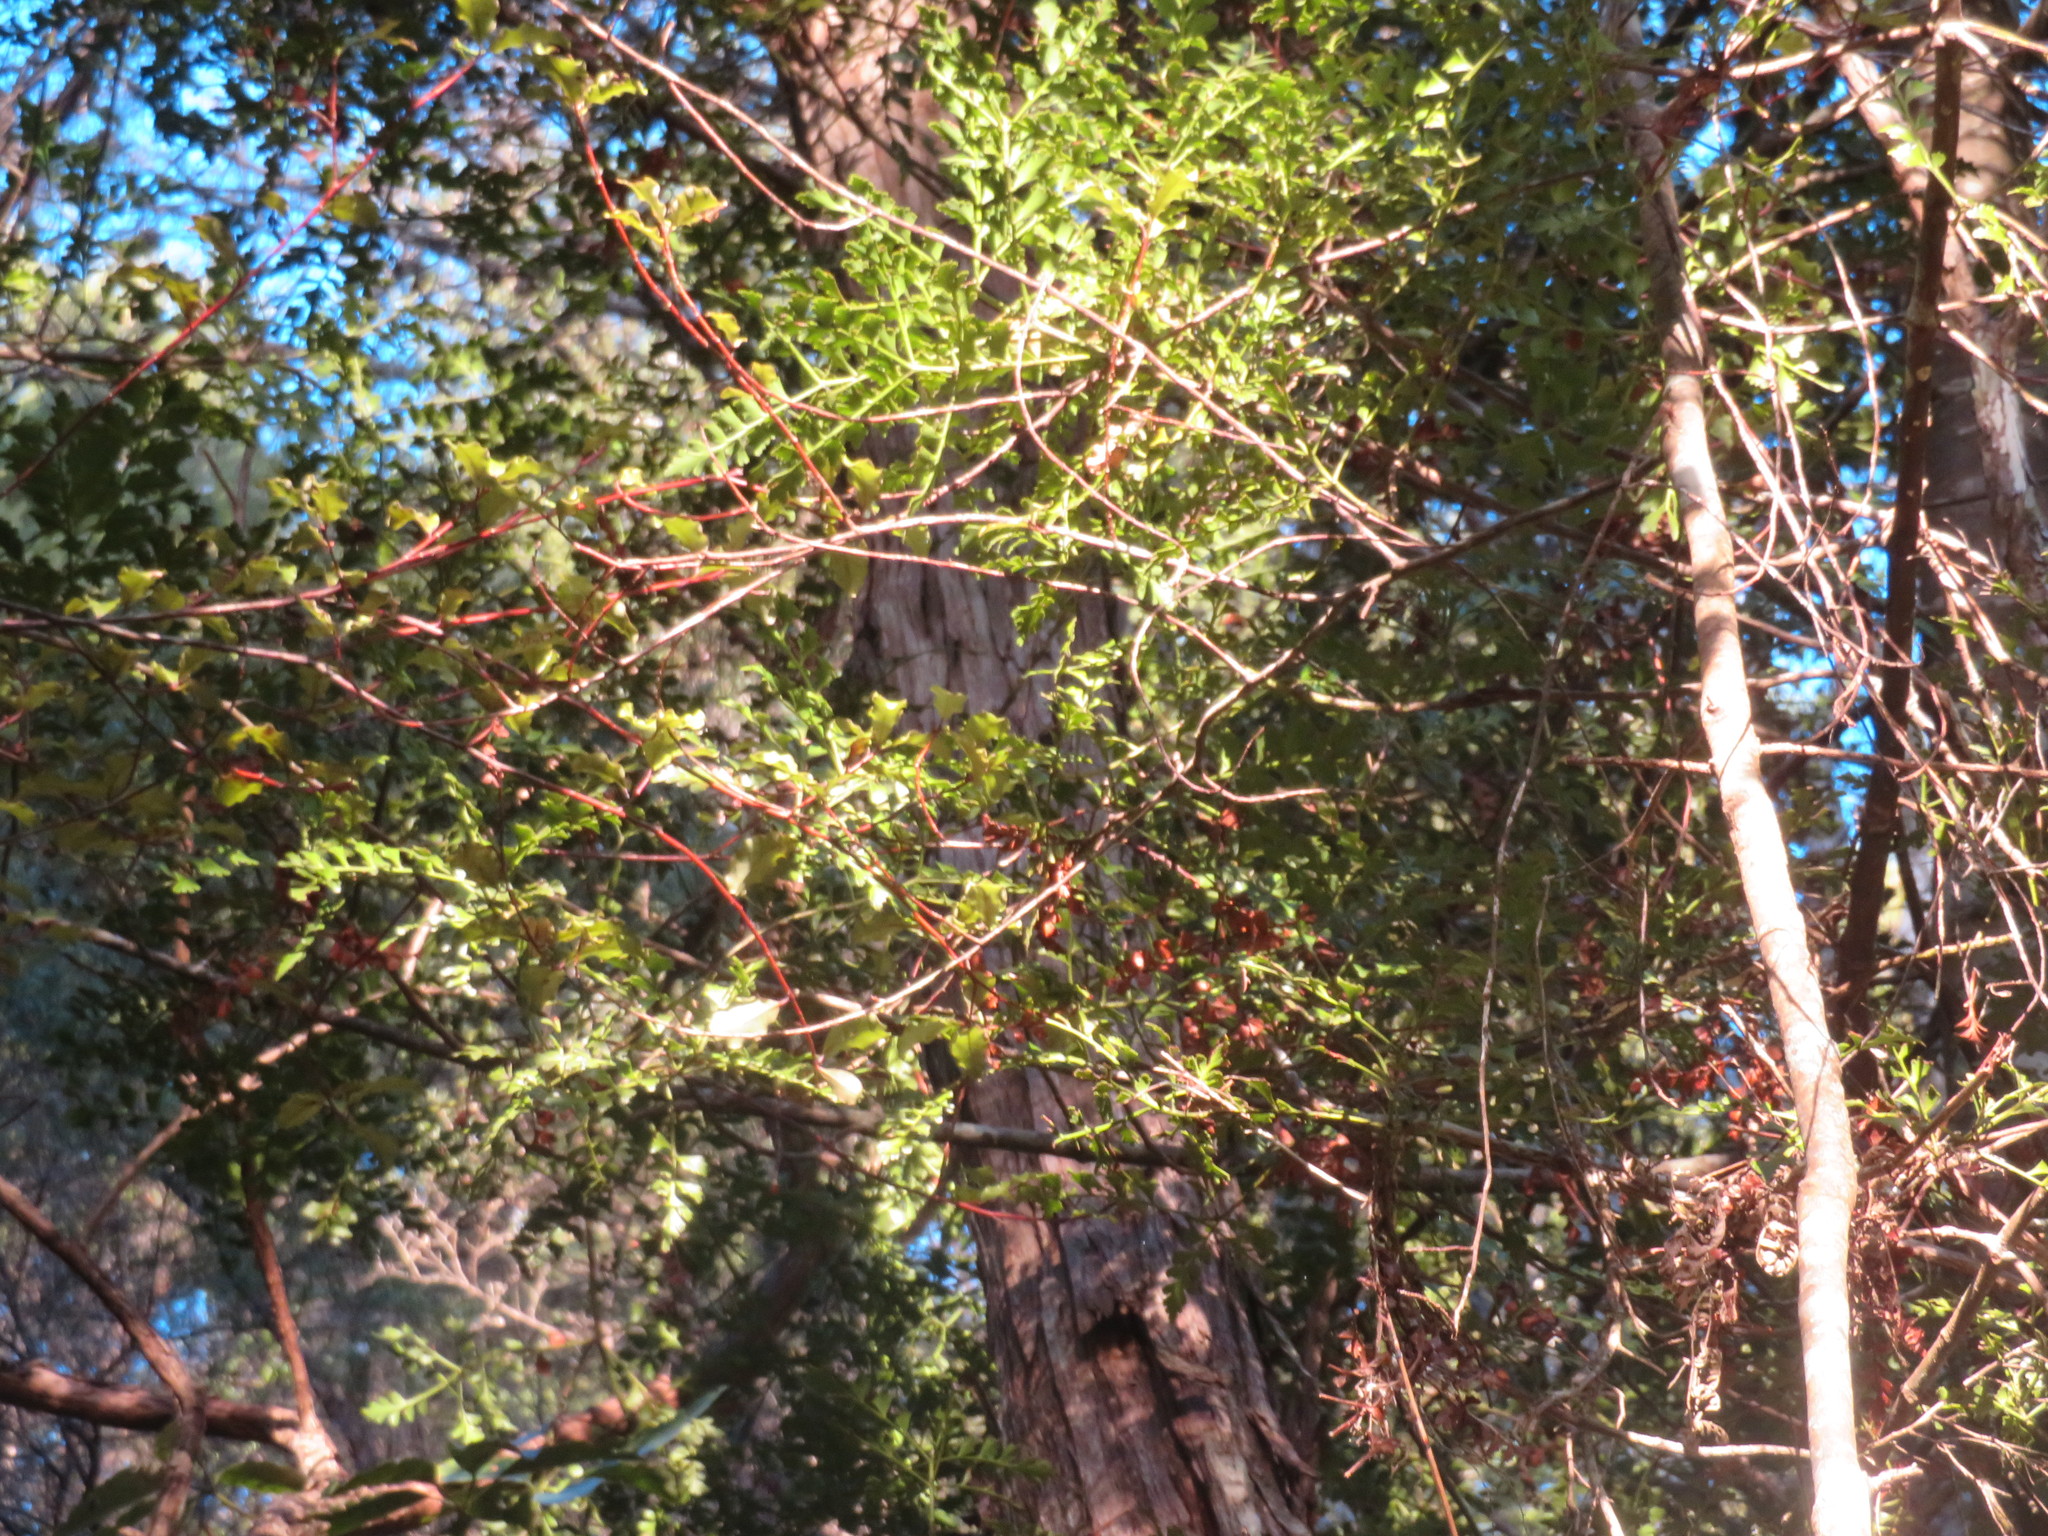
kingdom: Plantae
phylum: Tracheophyta
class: Pinopsida
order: Pinales
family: Phyllocladaceae
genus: Phyllocladus
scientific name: Phyllocladus trichomanoides
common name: Celery pine
